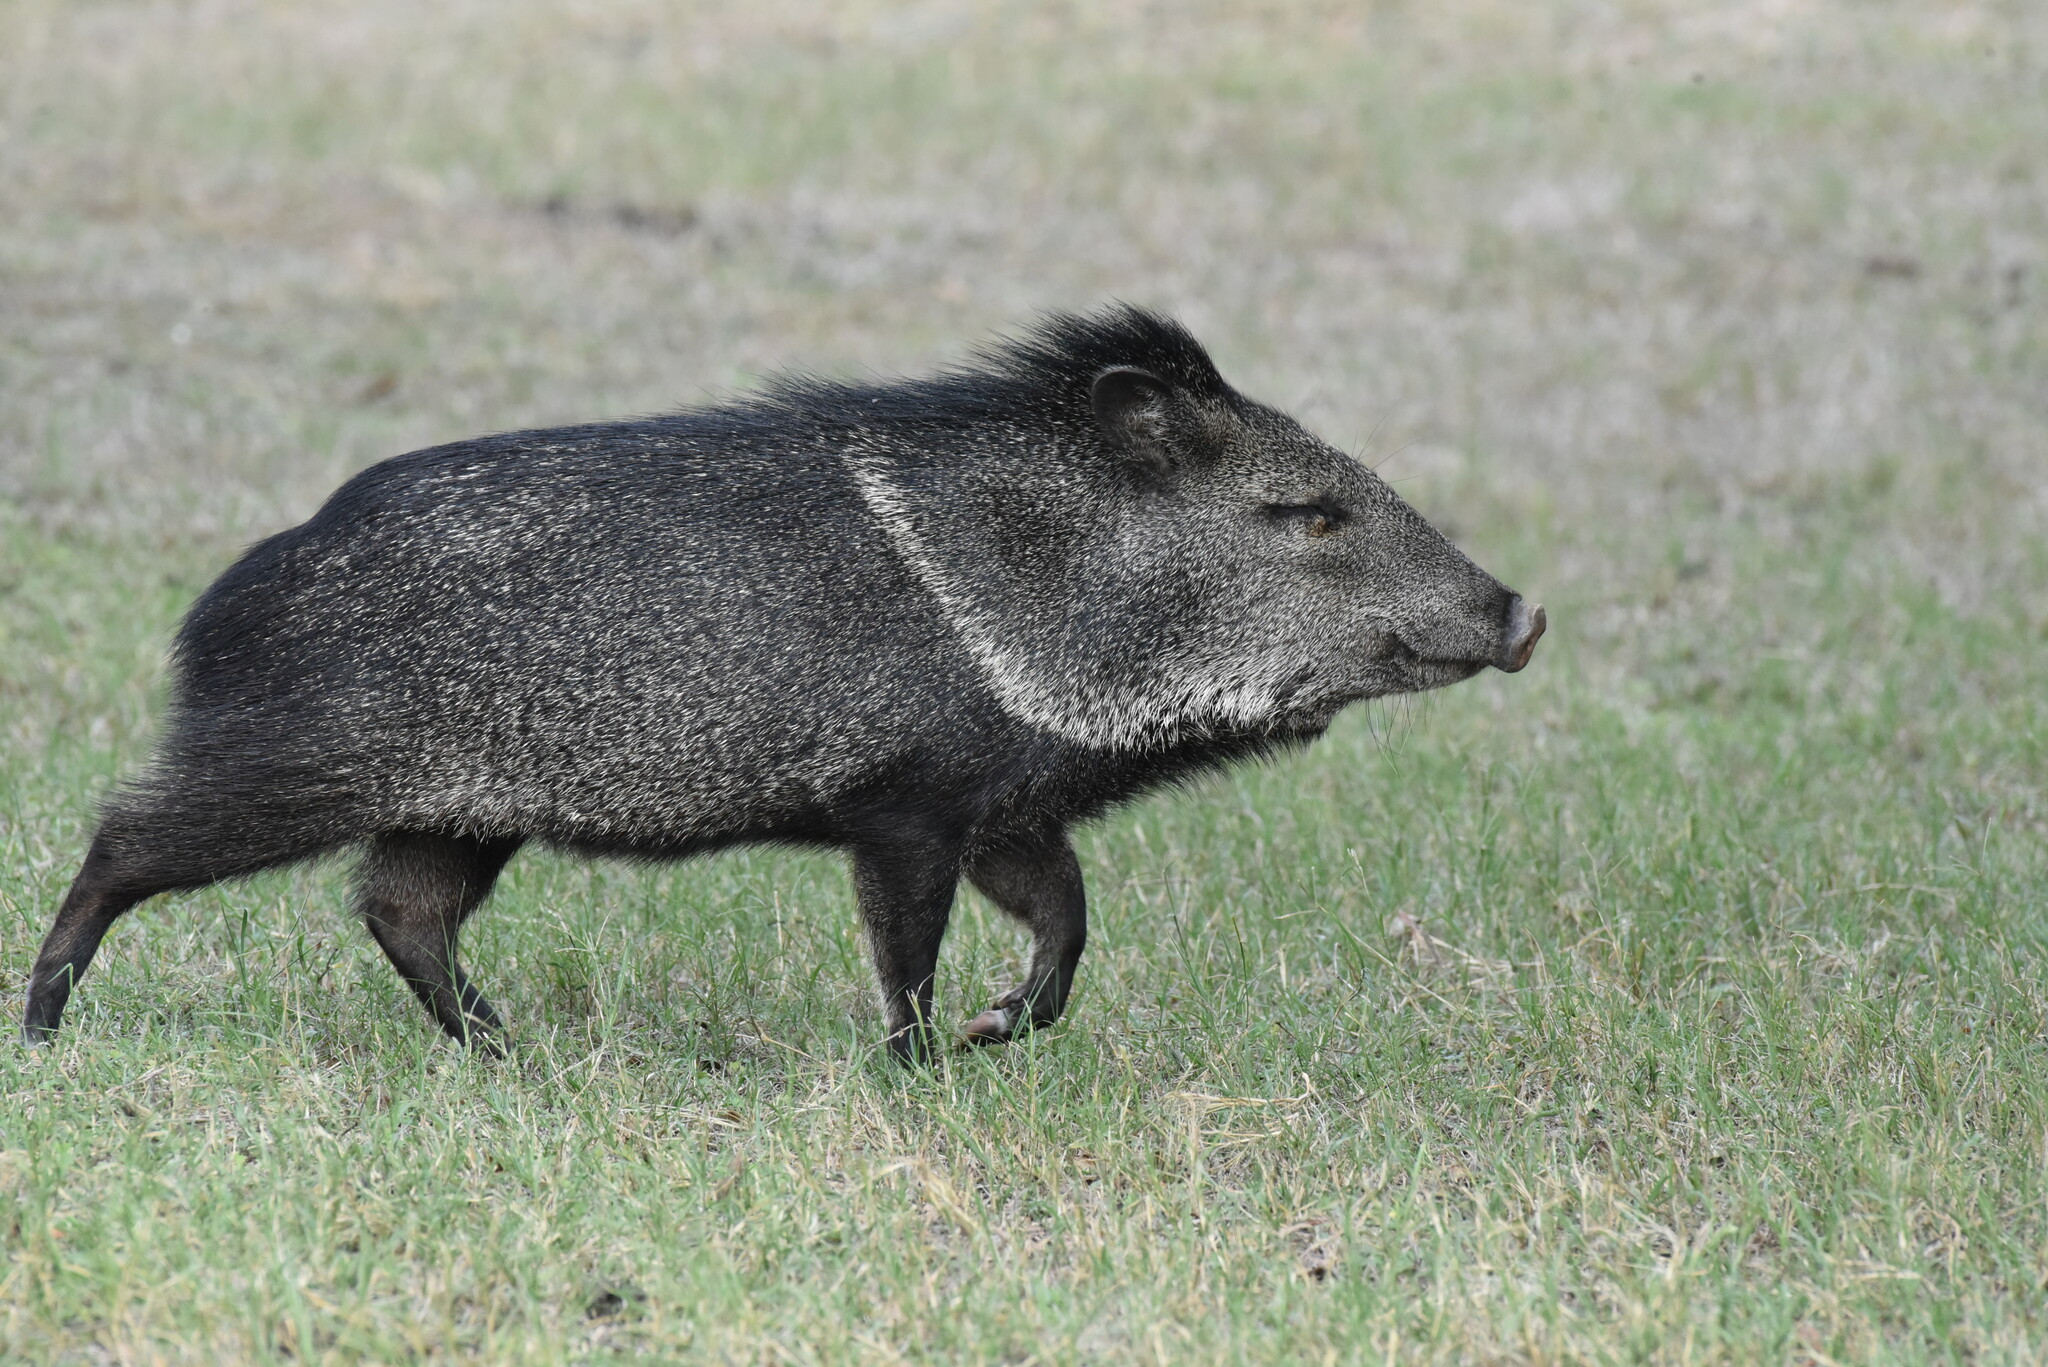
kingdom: Animalia
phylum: Chordata
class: Mammalia
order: Artiodactyla
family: Tayassuidae
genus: Pecari
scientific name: Pecari tajacu
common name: Collared peccary
